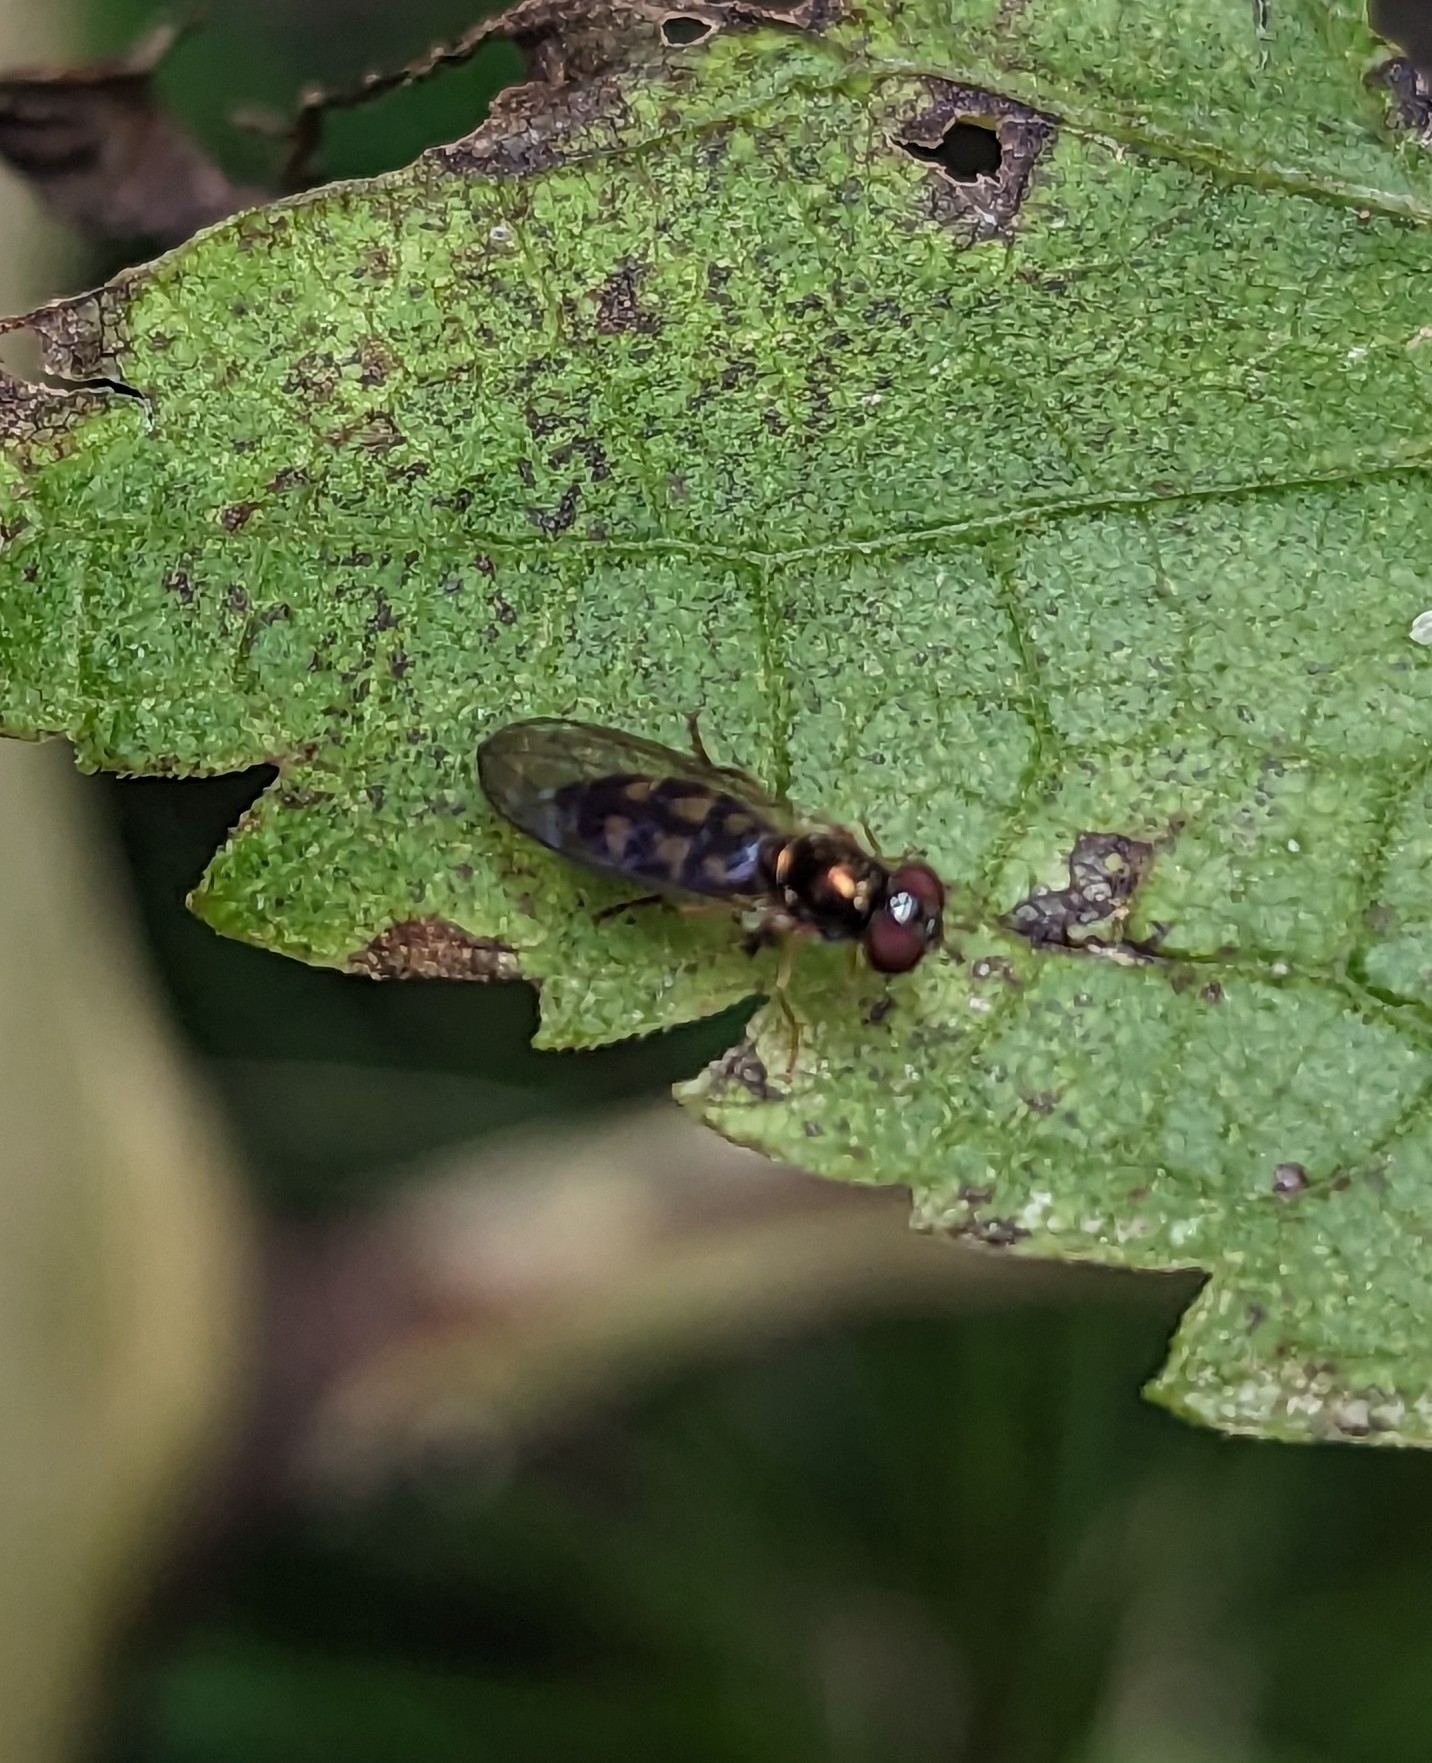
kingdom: Animalia
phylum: Arthropoda
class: Insecta
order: Diptera
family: Syrphidae
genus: Melanostoma
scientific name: Melanostoma mellina
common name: Hover fly
